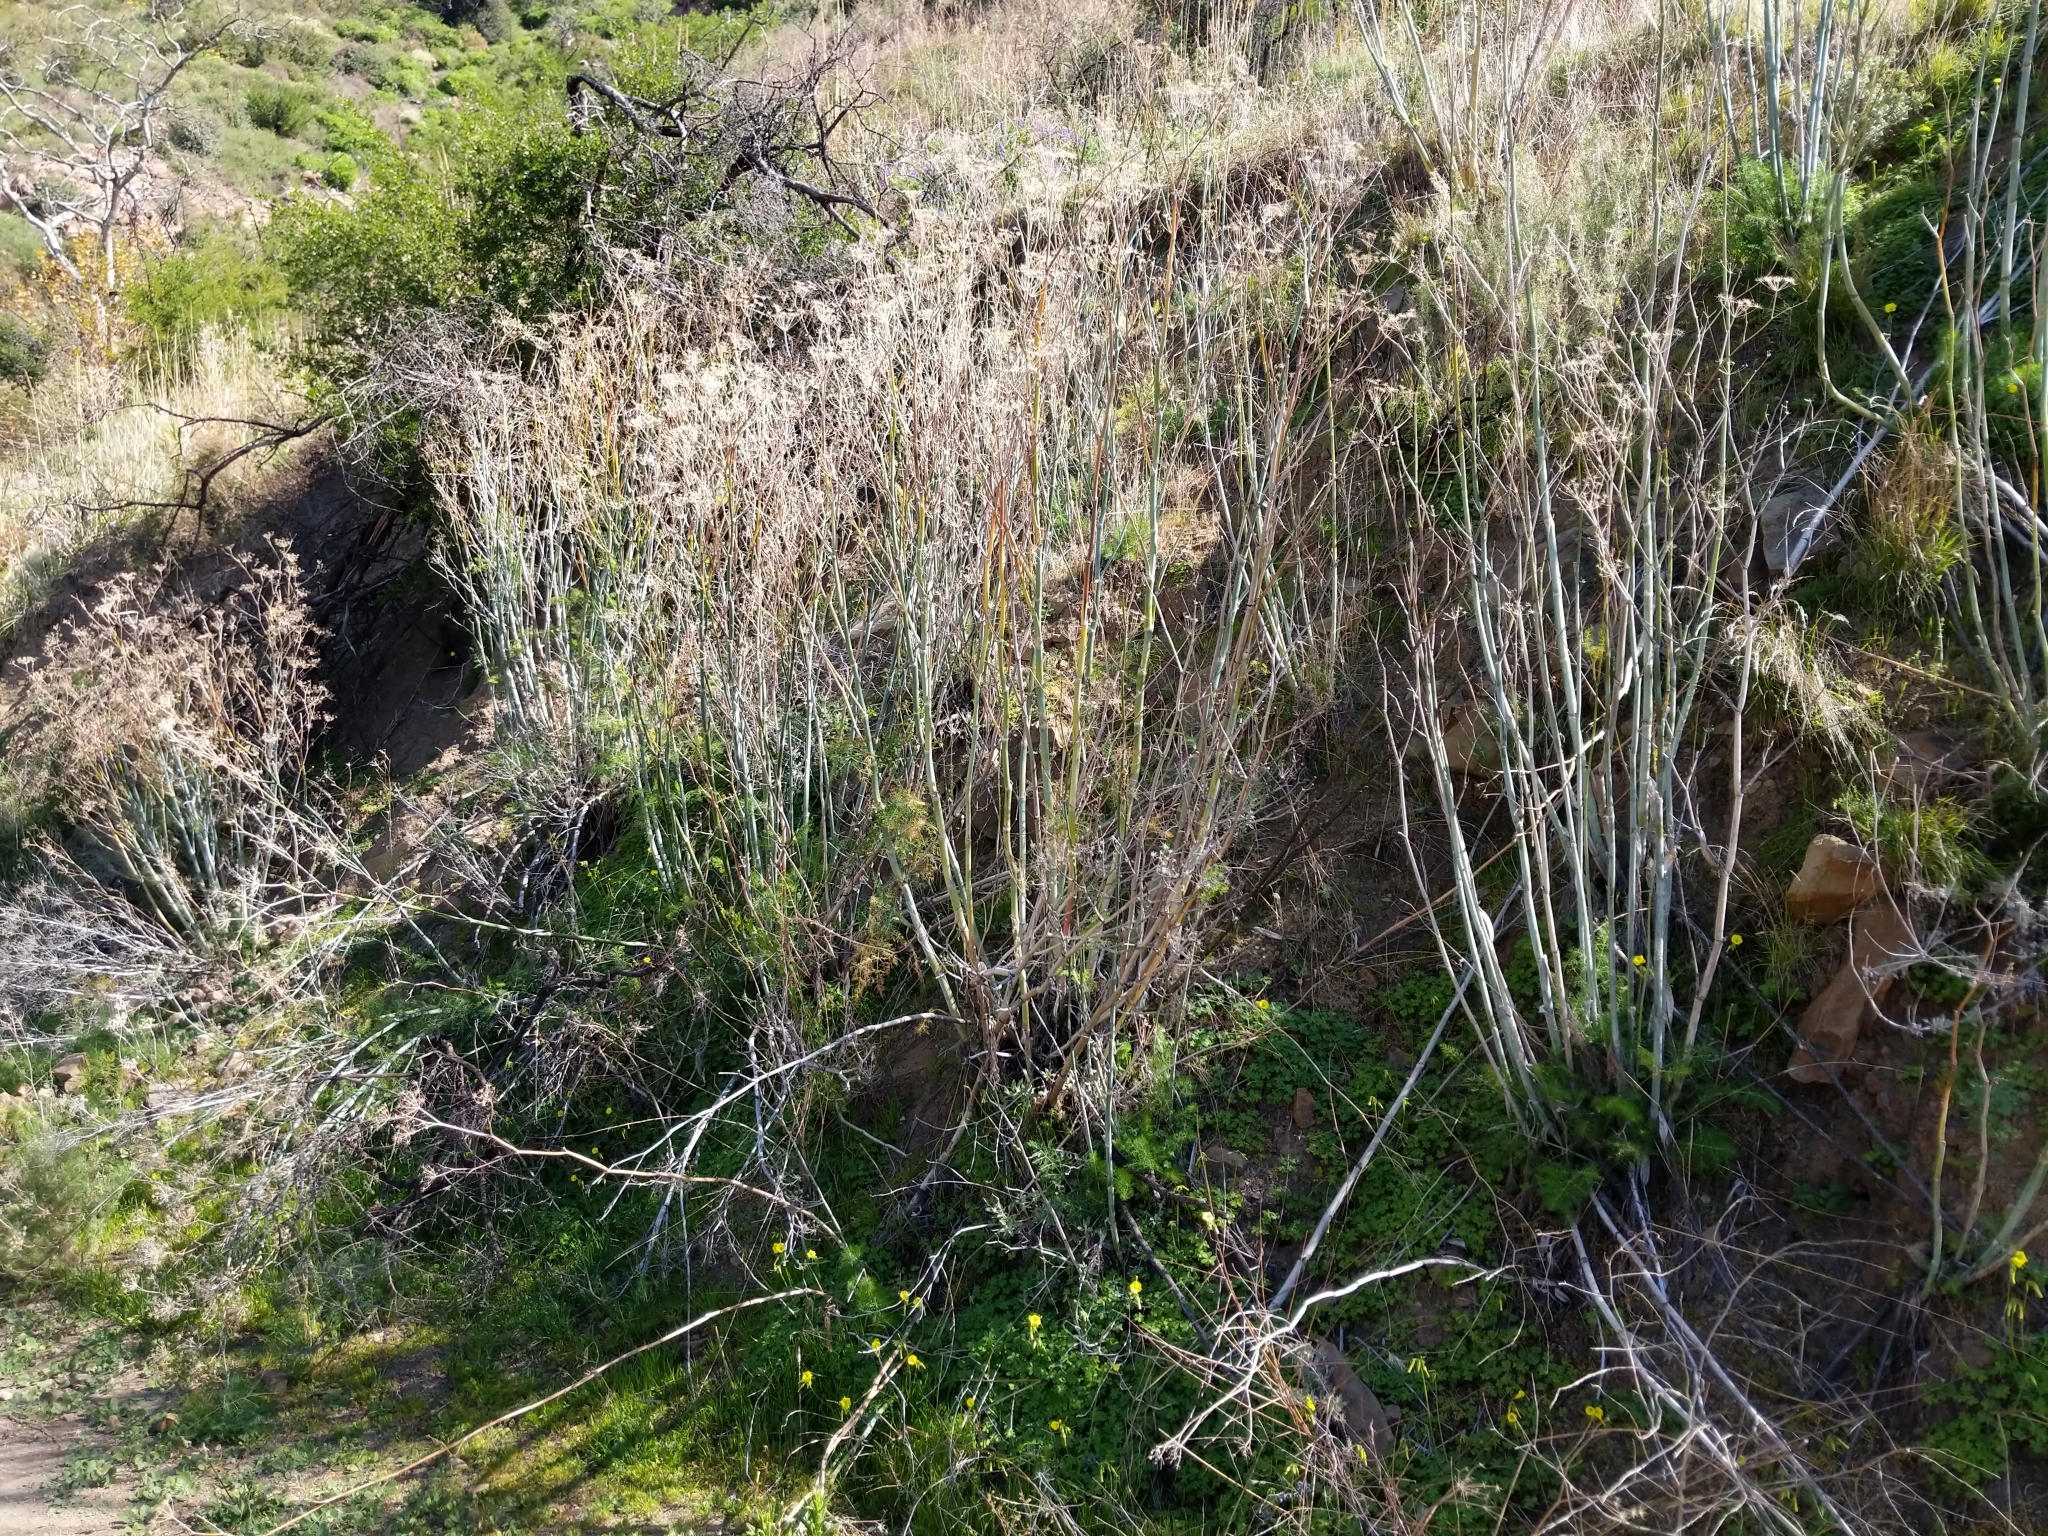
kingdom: Plantae
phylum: Tracheophyta
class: Magnoliopsida
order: Apiales
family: Apiaceae
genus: Foeniculum
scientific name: Foeniculum vulgare
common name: Fennel
